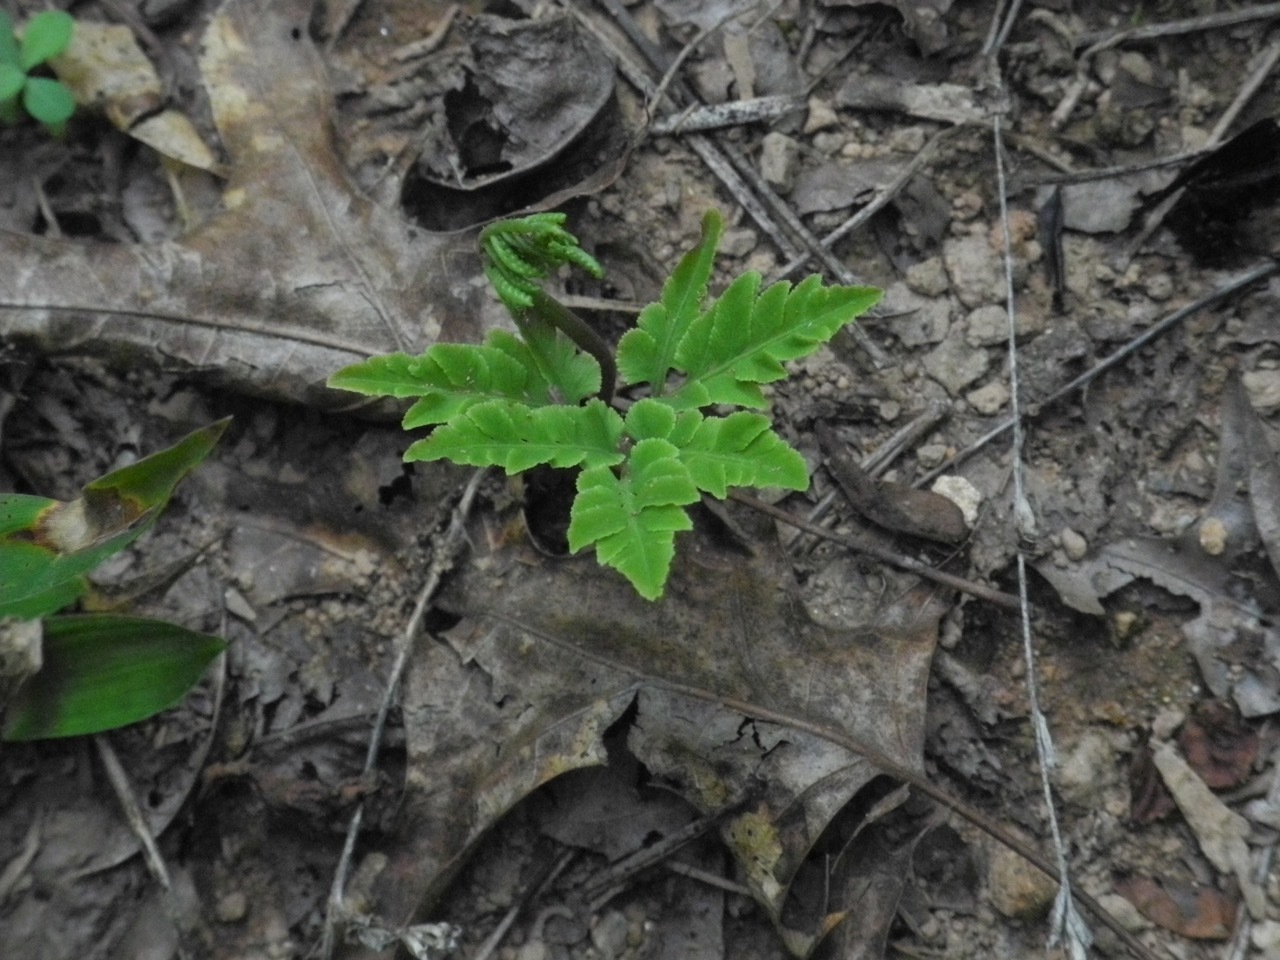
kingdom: Plantae
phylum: Tracheophyta
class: Polypodiopsida
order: Ophioglossales
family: Ophioglossaceae
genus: Sceptridium
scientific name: Sceptridium multifidum
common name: Leathery grape fern
